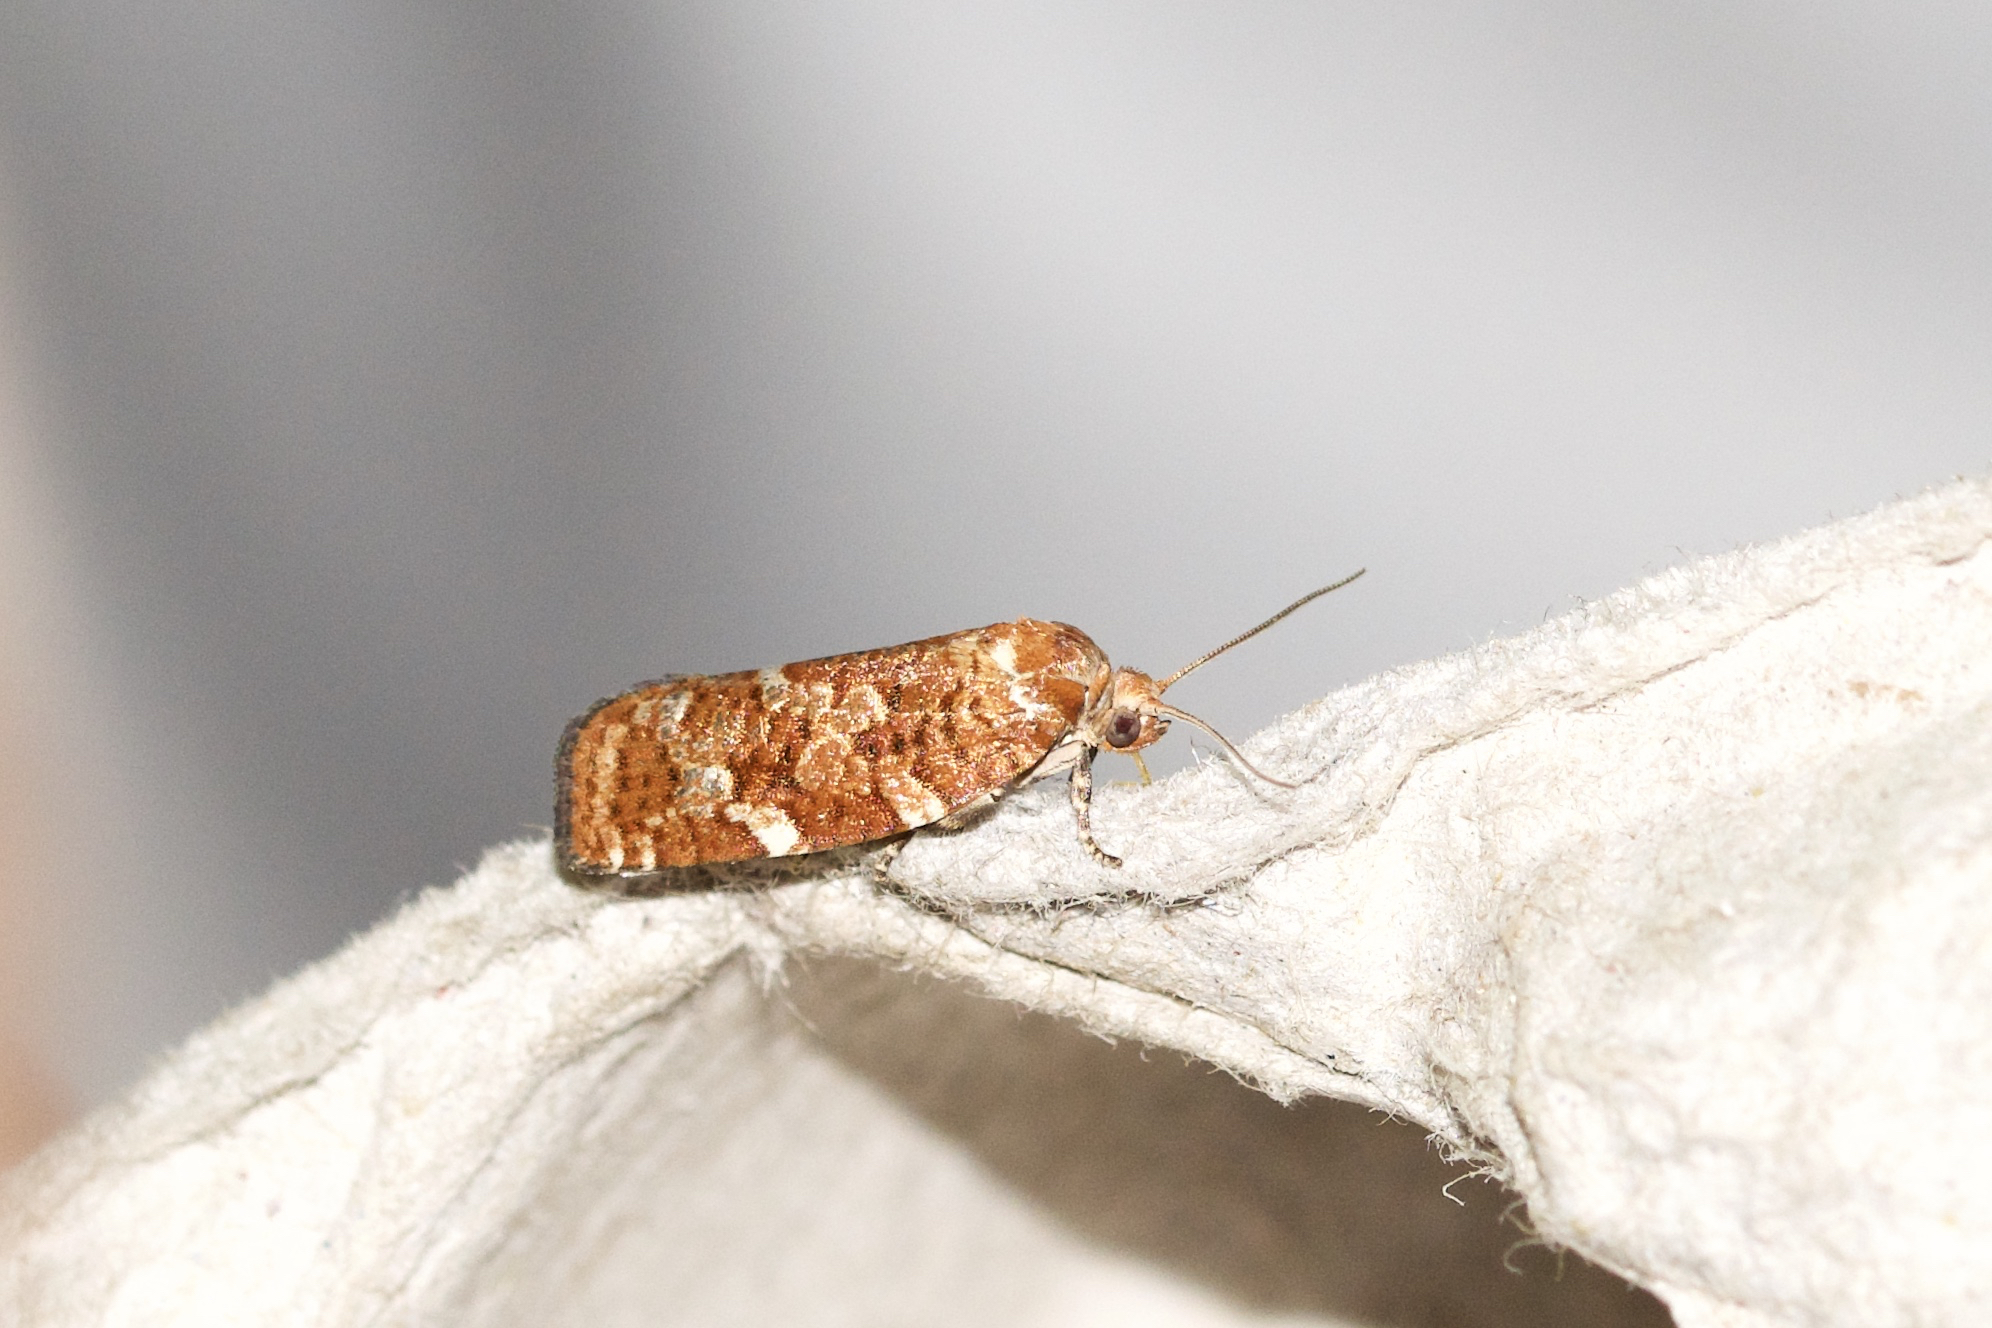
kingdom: Animalia
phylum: Arthropoda
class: Insecta
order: Lepidoptera
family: Tortricidae
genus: Choristoneura
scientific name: Choristoneura pinus
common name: Jack pine budworm
